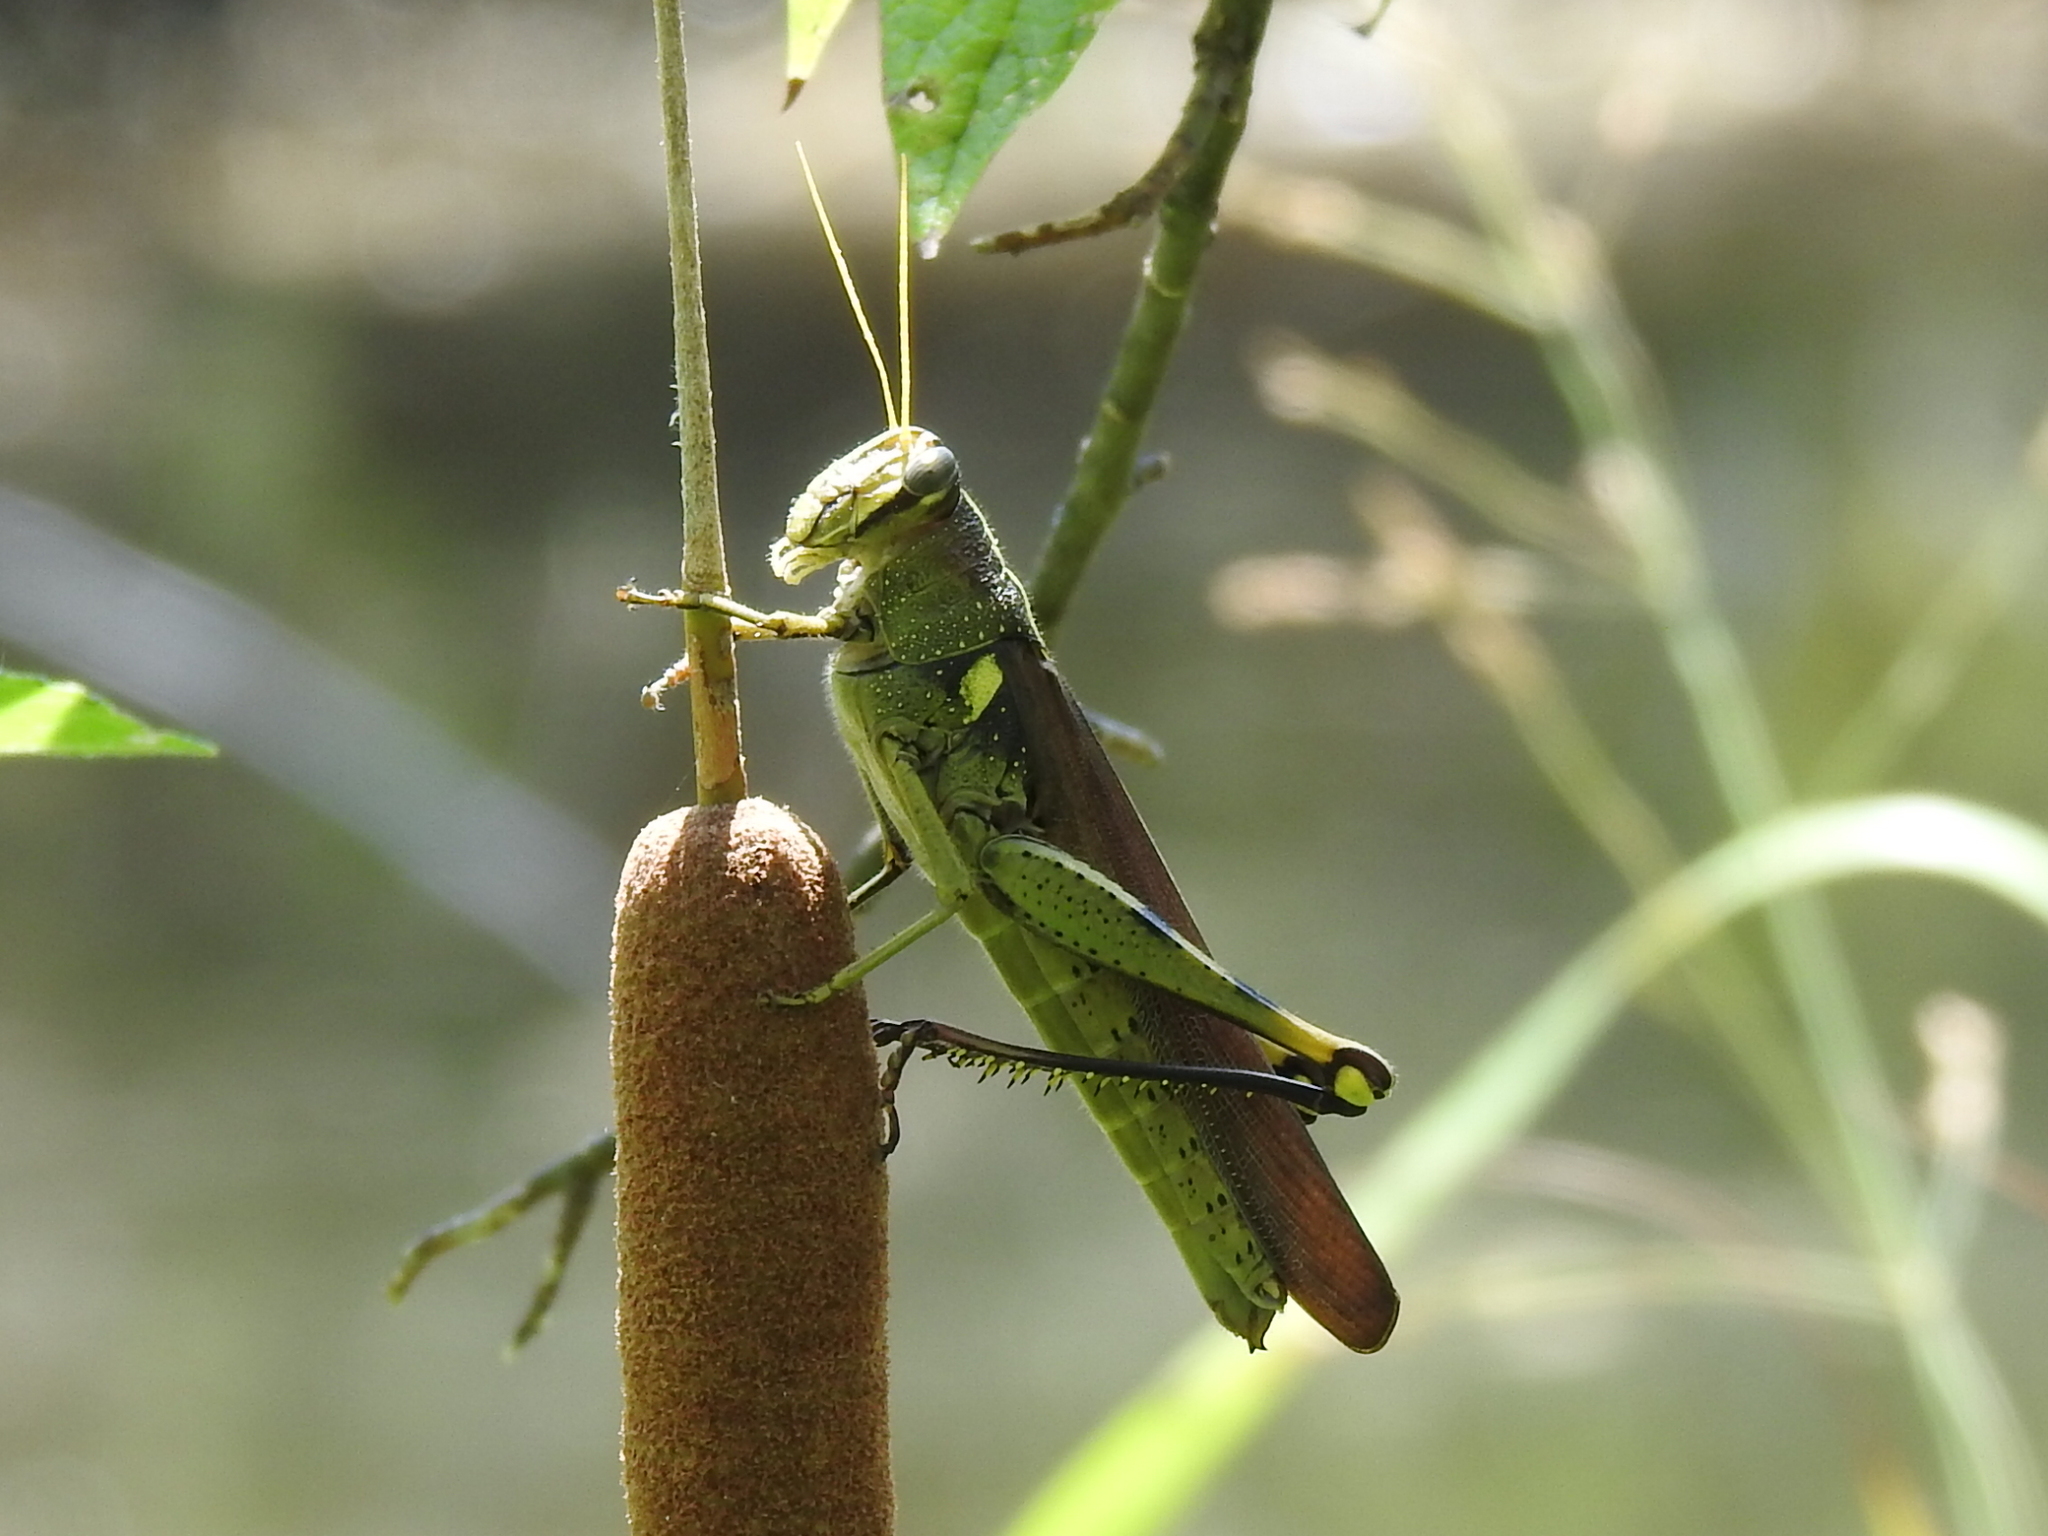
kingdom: Animalia
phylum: Arthropoda
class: Insecta
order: Orthoptera
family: Acrididae
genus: Schistocerca
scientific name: Schistocerca obscura
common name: Obscure bird grasshopper
